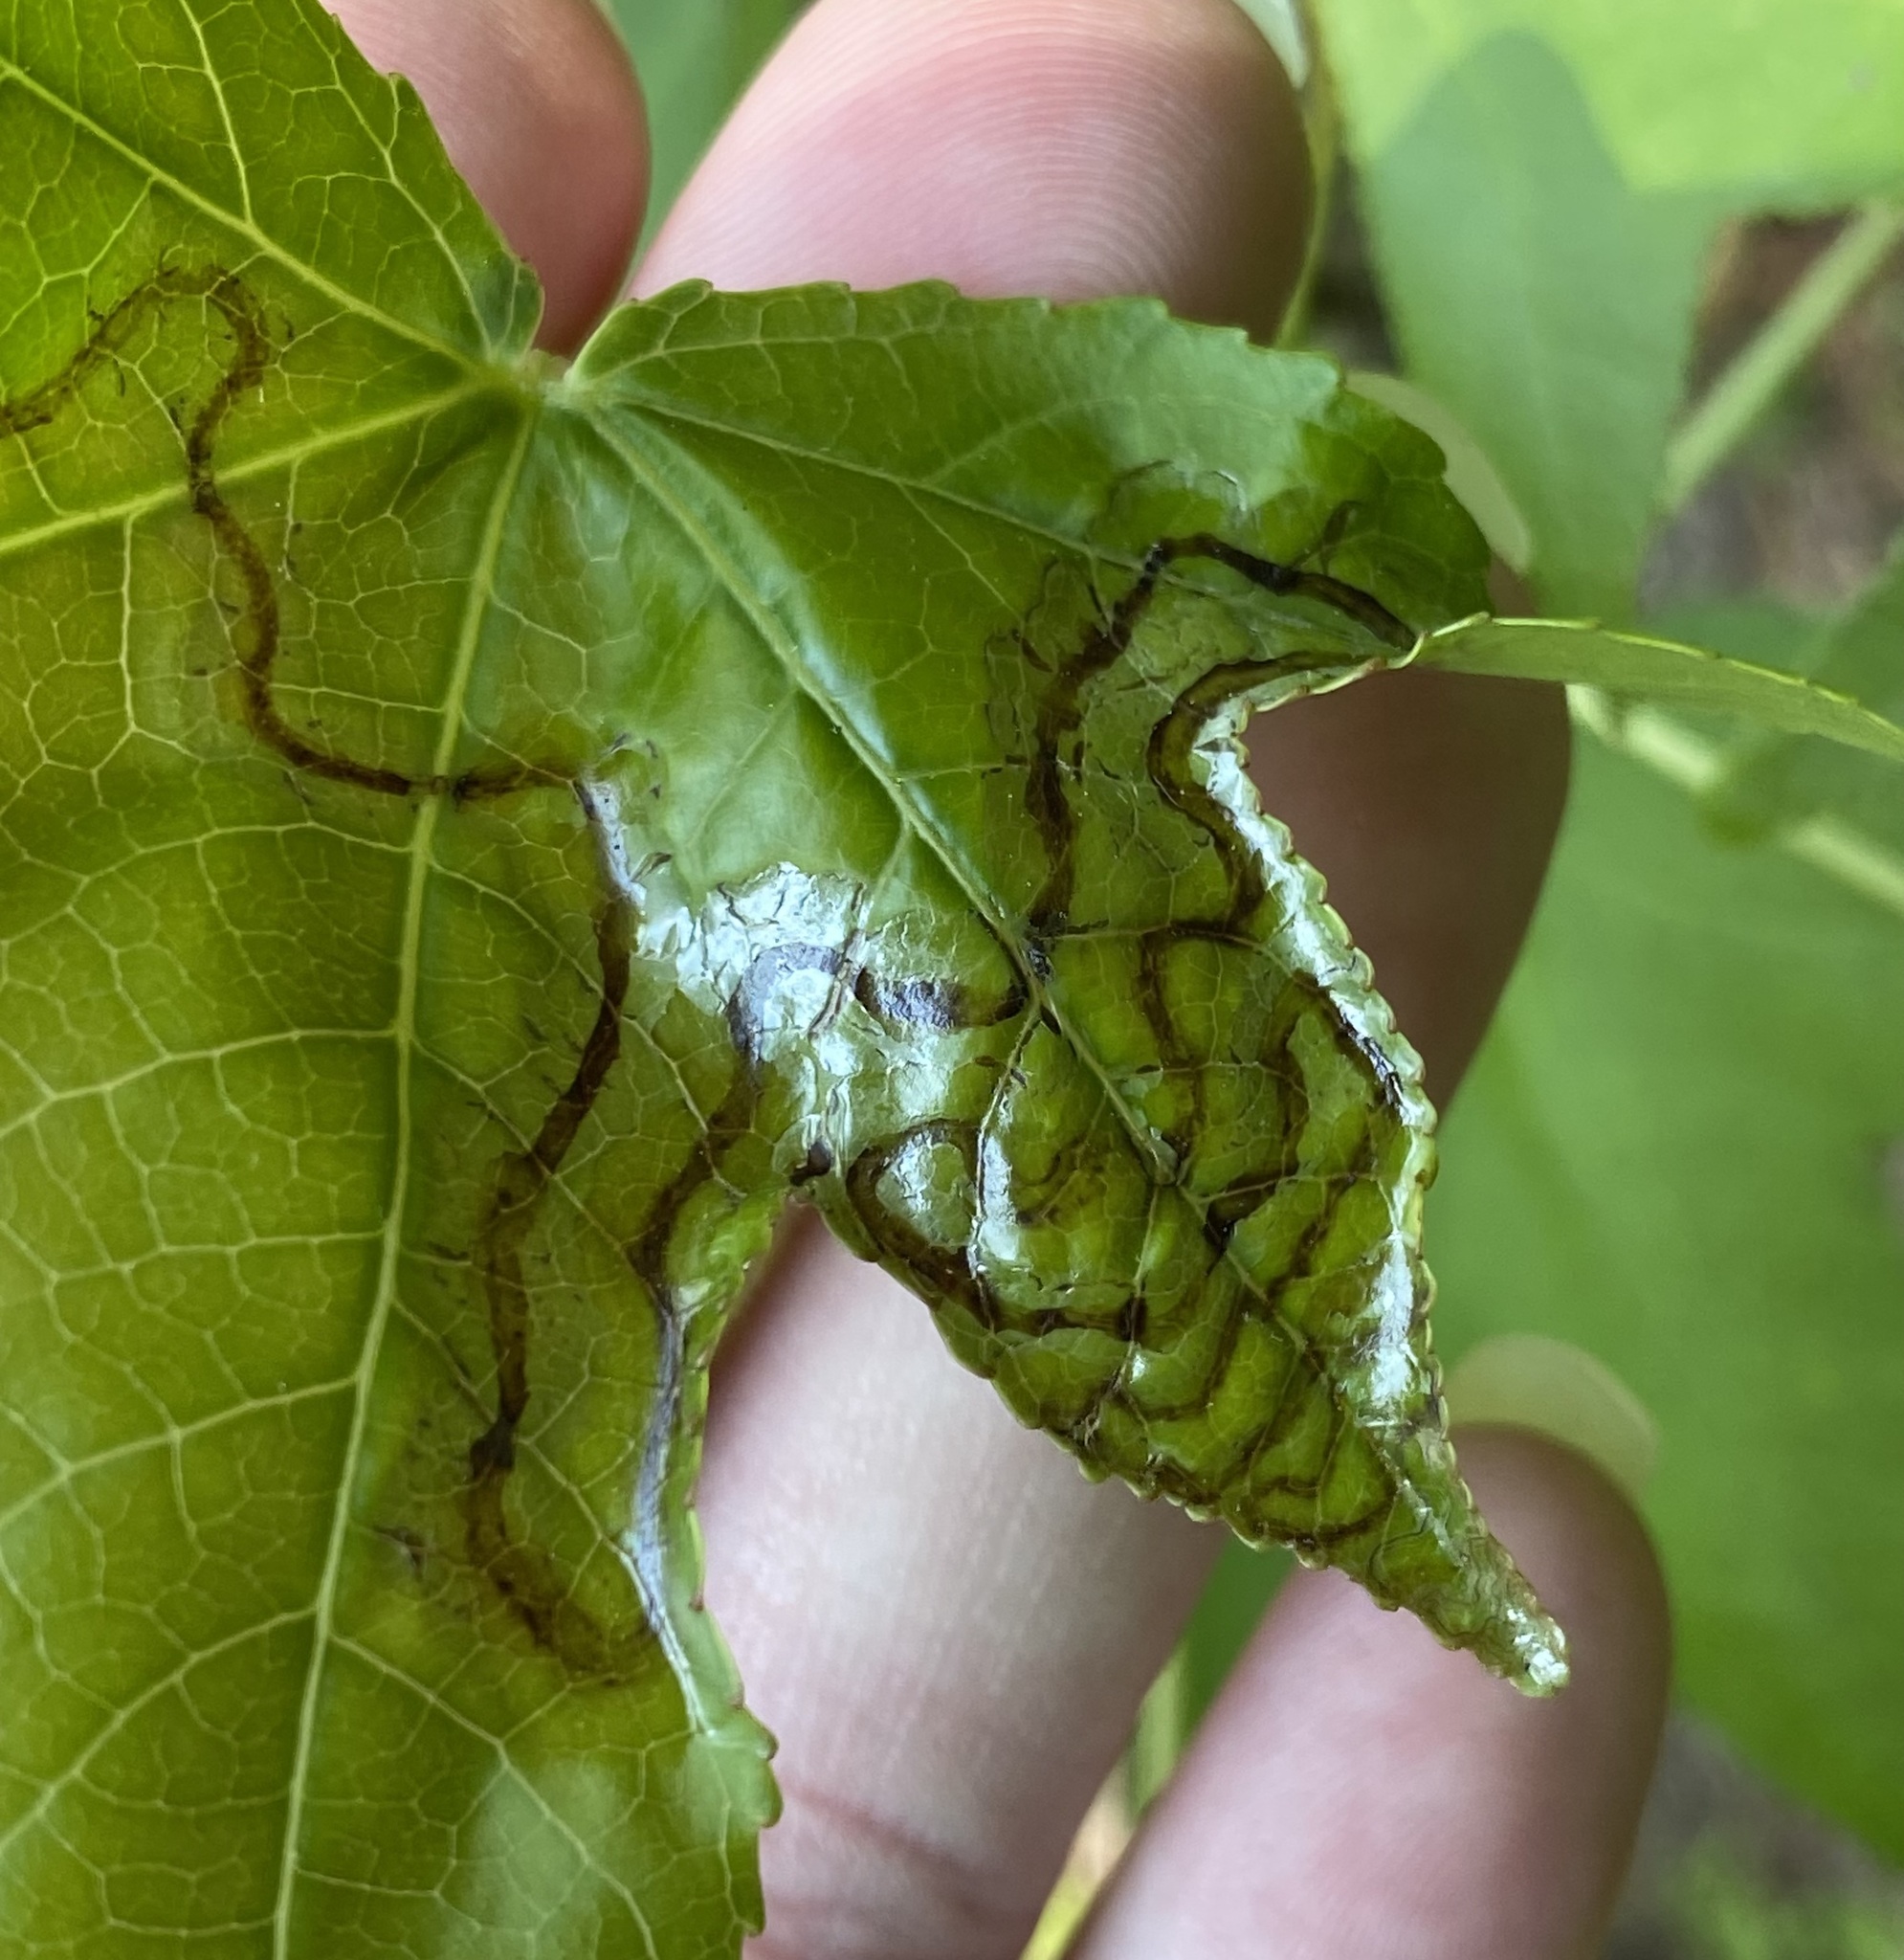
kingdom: Plantae
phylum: Tracheophyta
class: Magnoliopsida
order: Saxifragales
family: Altingiaceae
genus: Liquidambar
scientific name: Liquidambar styraciflua
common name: Sweet gum
